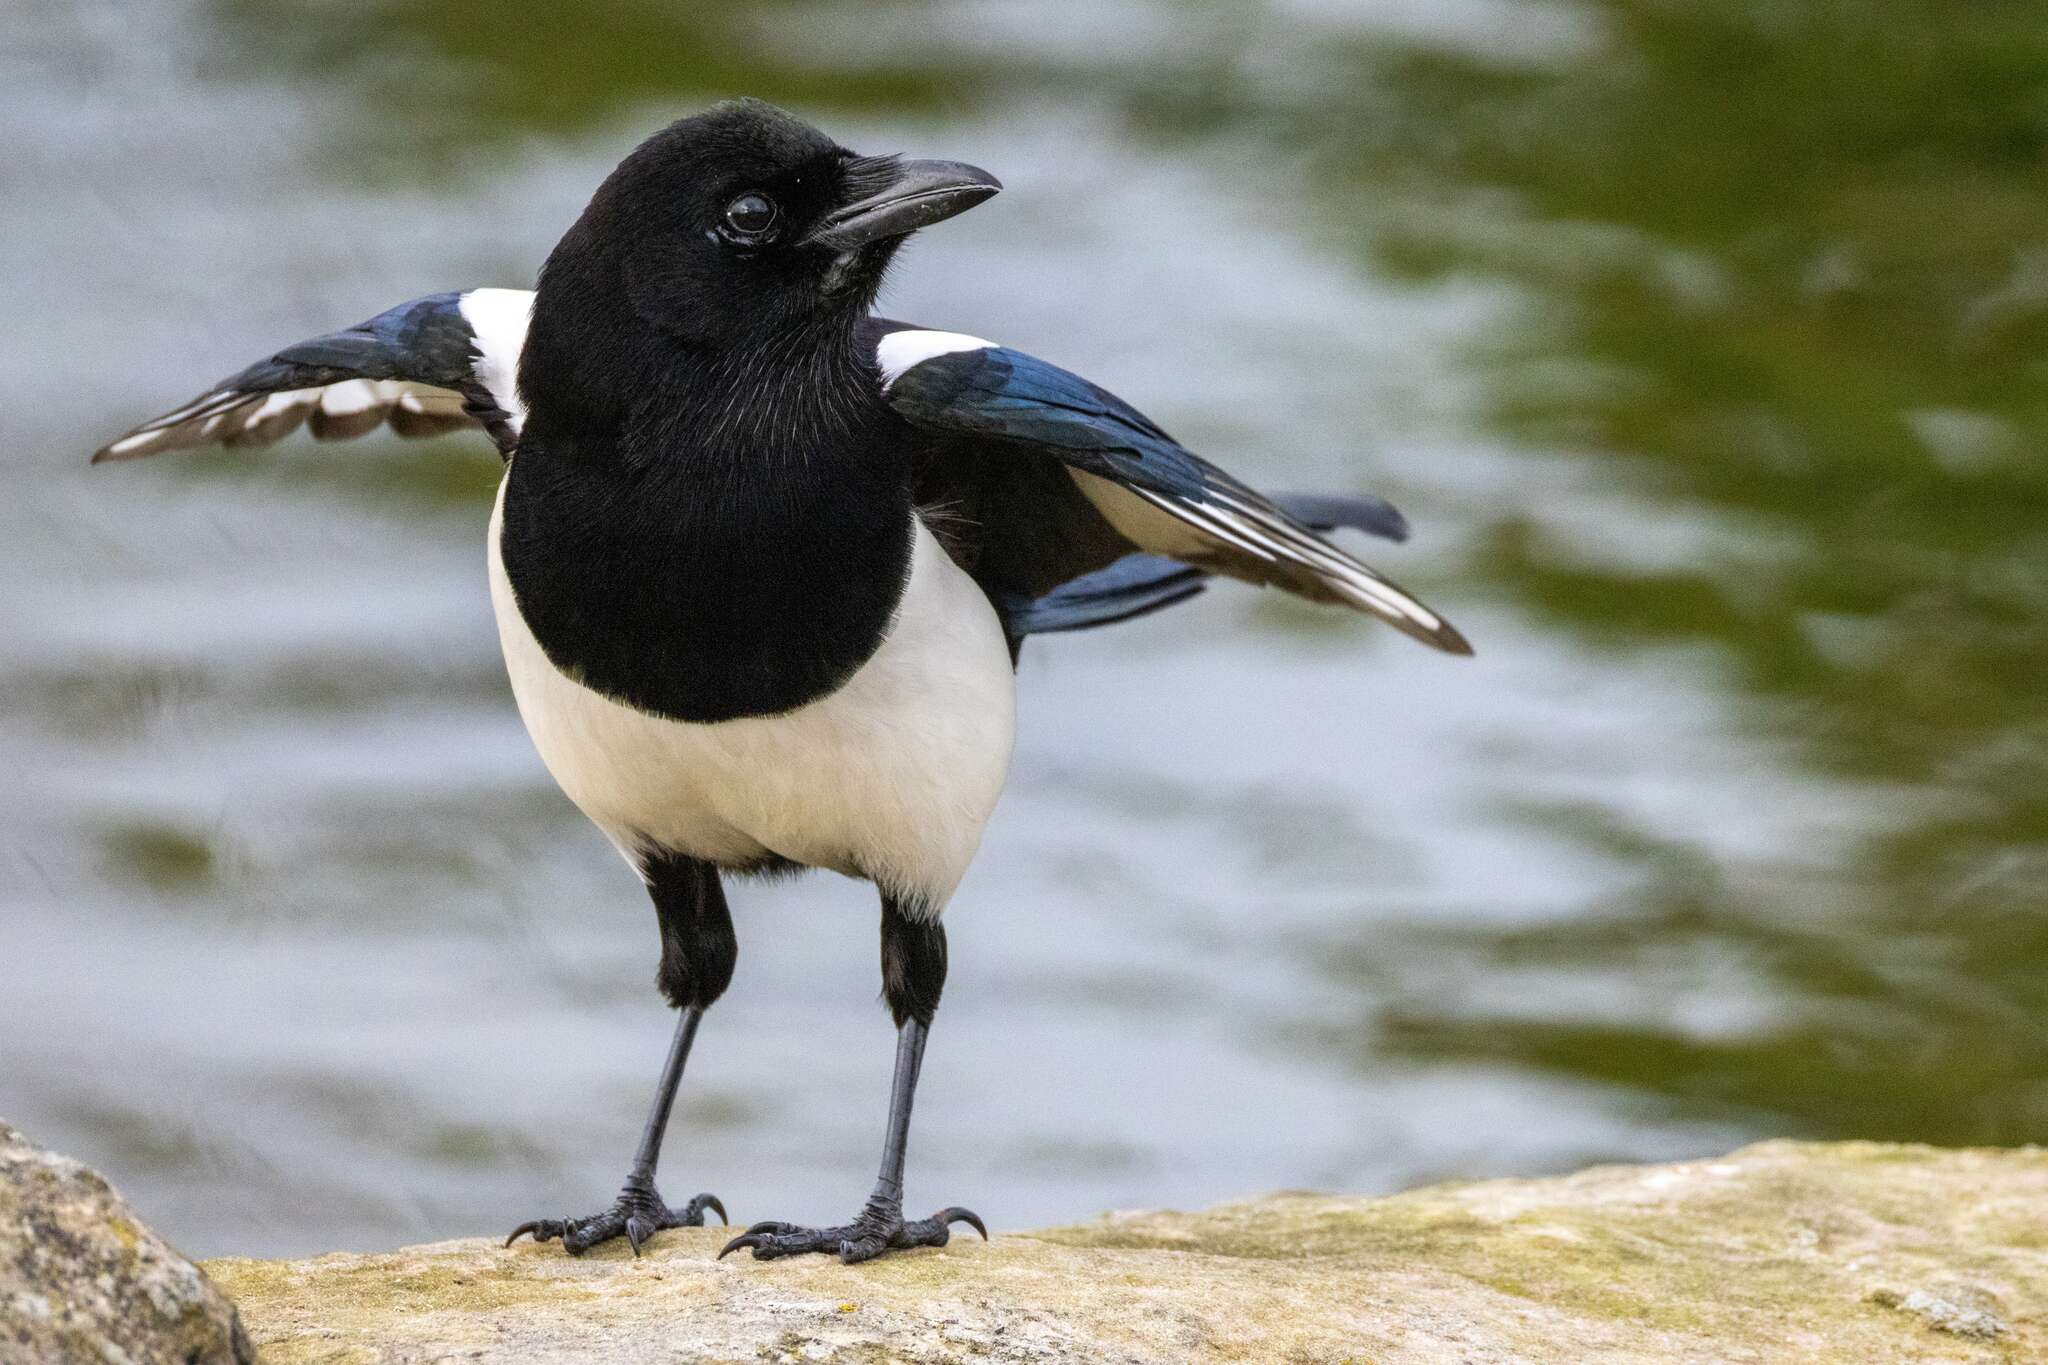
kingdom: Animalia
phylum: Chordata
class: Aves
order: Passeriformes
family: Corvidae
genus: Pica
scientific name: Pica pica
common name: Eurasian magpie
